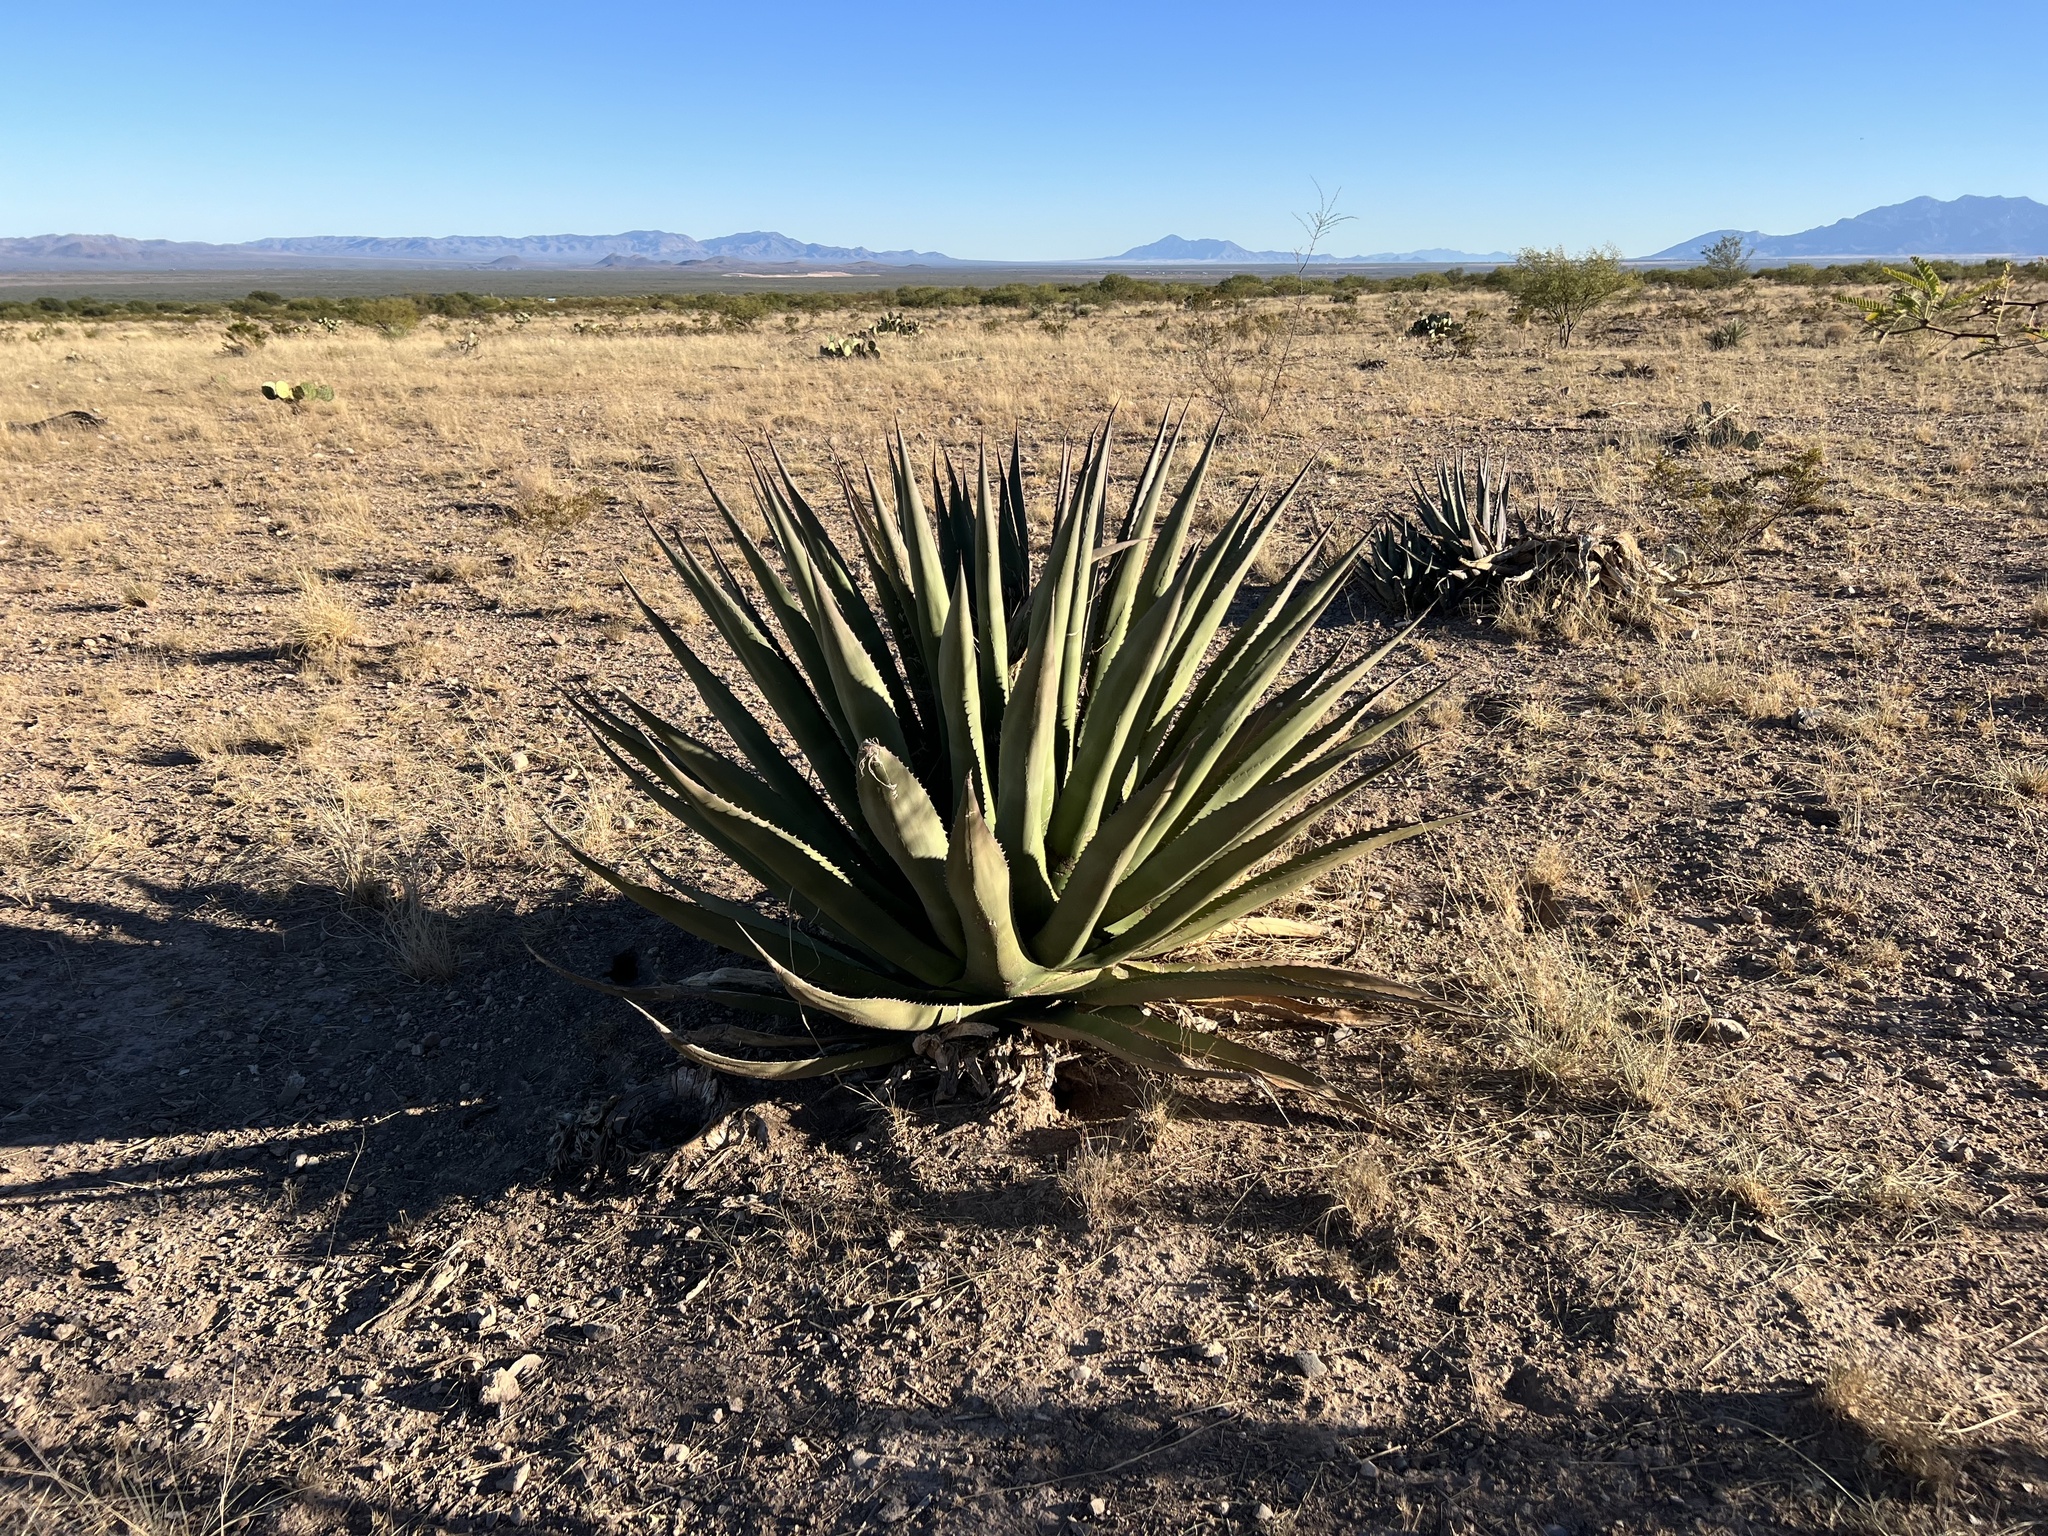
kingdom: Plantae
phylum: Tracheophyta
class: Liliopsida
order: Asparagales
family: Asparagaceae
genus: Agave
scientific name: Agave palmeri
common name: Palmer agave
